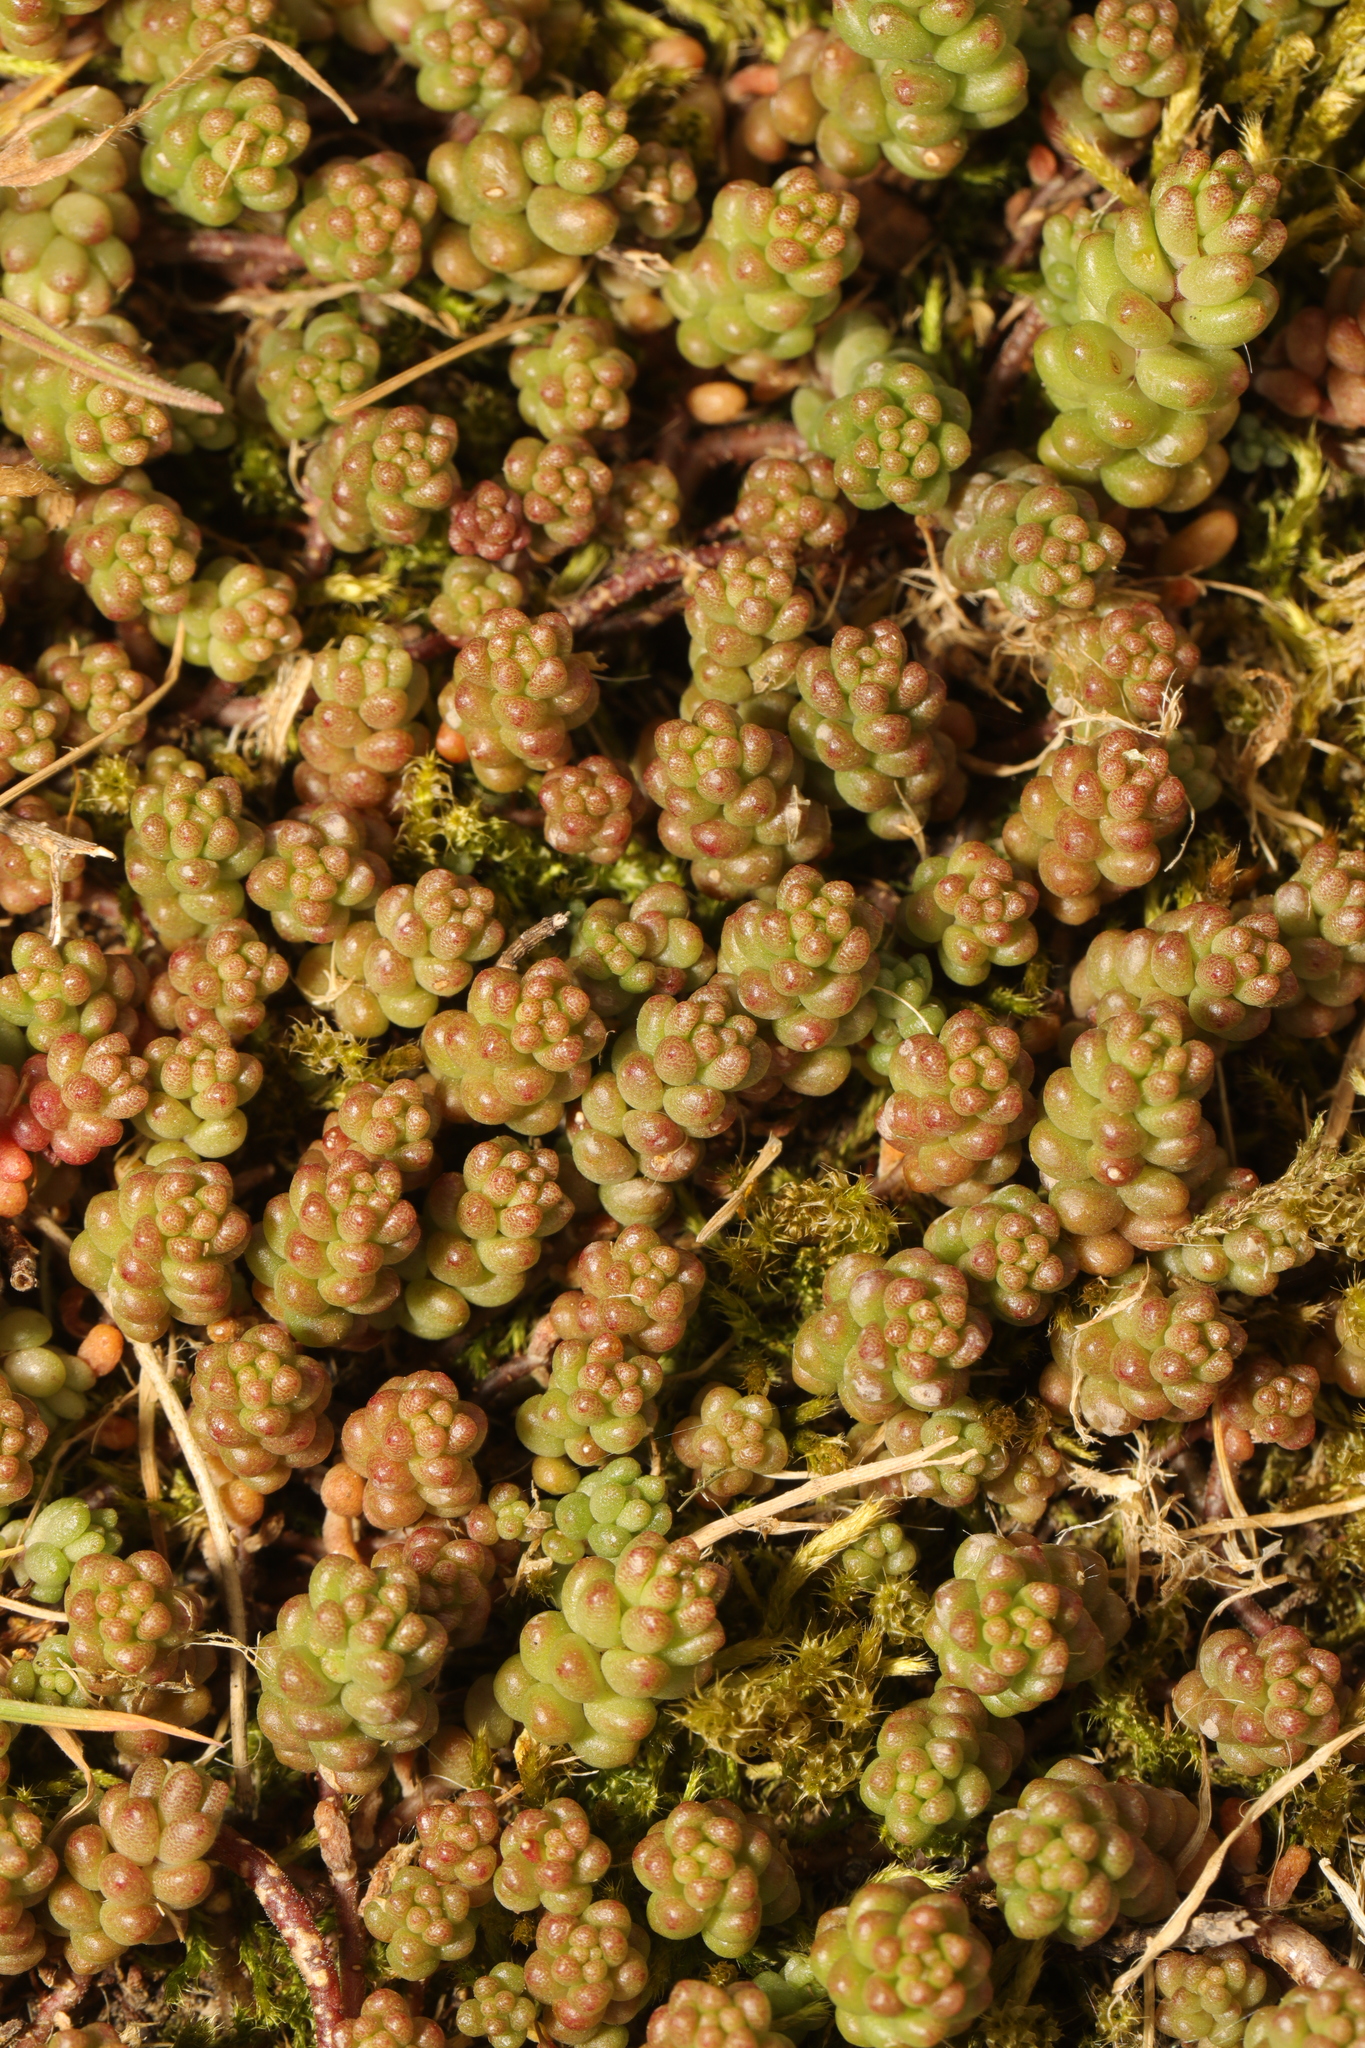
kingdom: Plantae
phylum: Tracheophyta
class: Magnoliopsida
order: Saxifragales
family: Crassulaceae
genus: Sedum
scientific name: Sedum album
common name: White stonecrop
